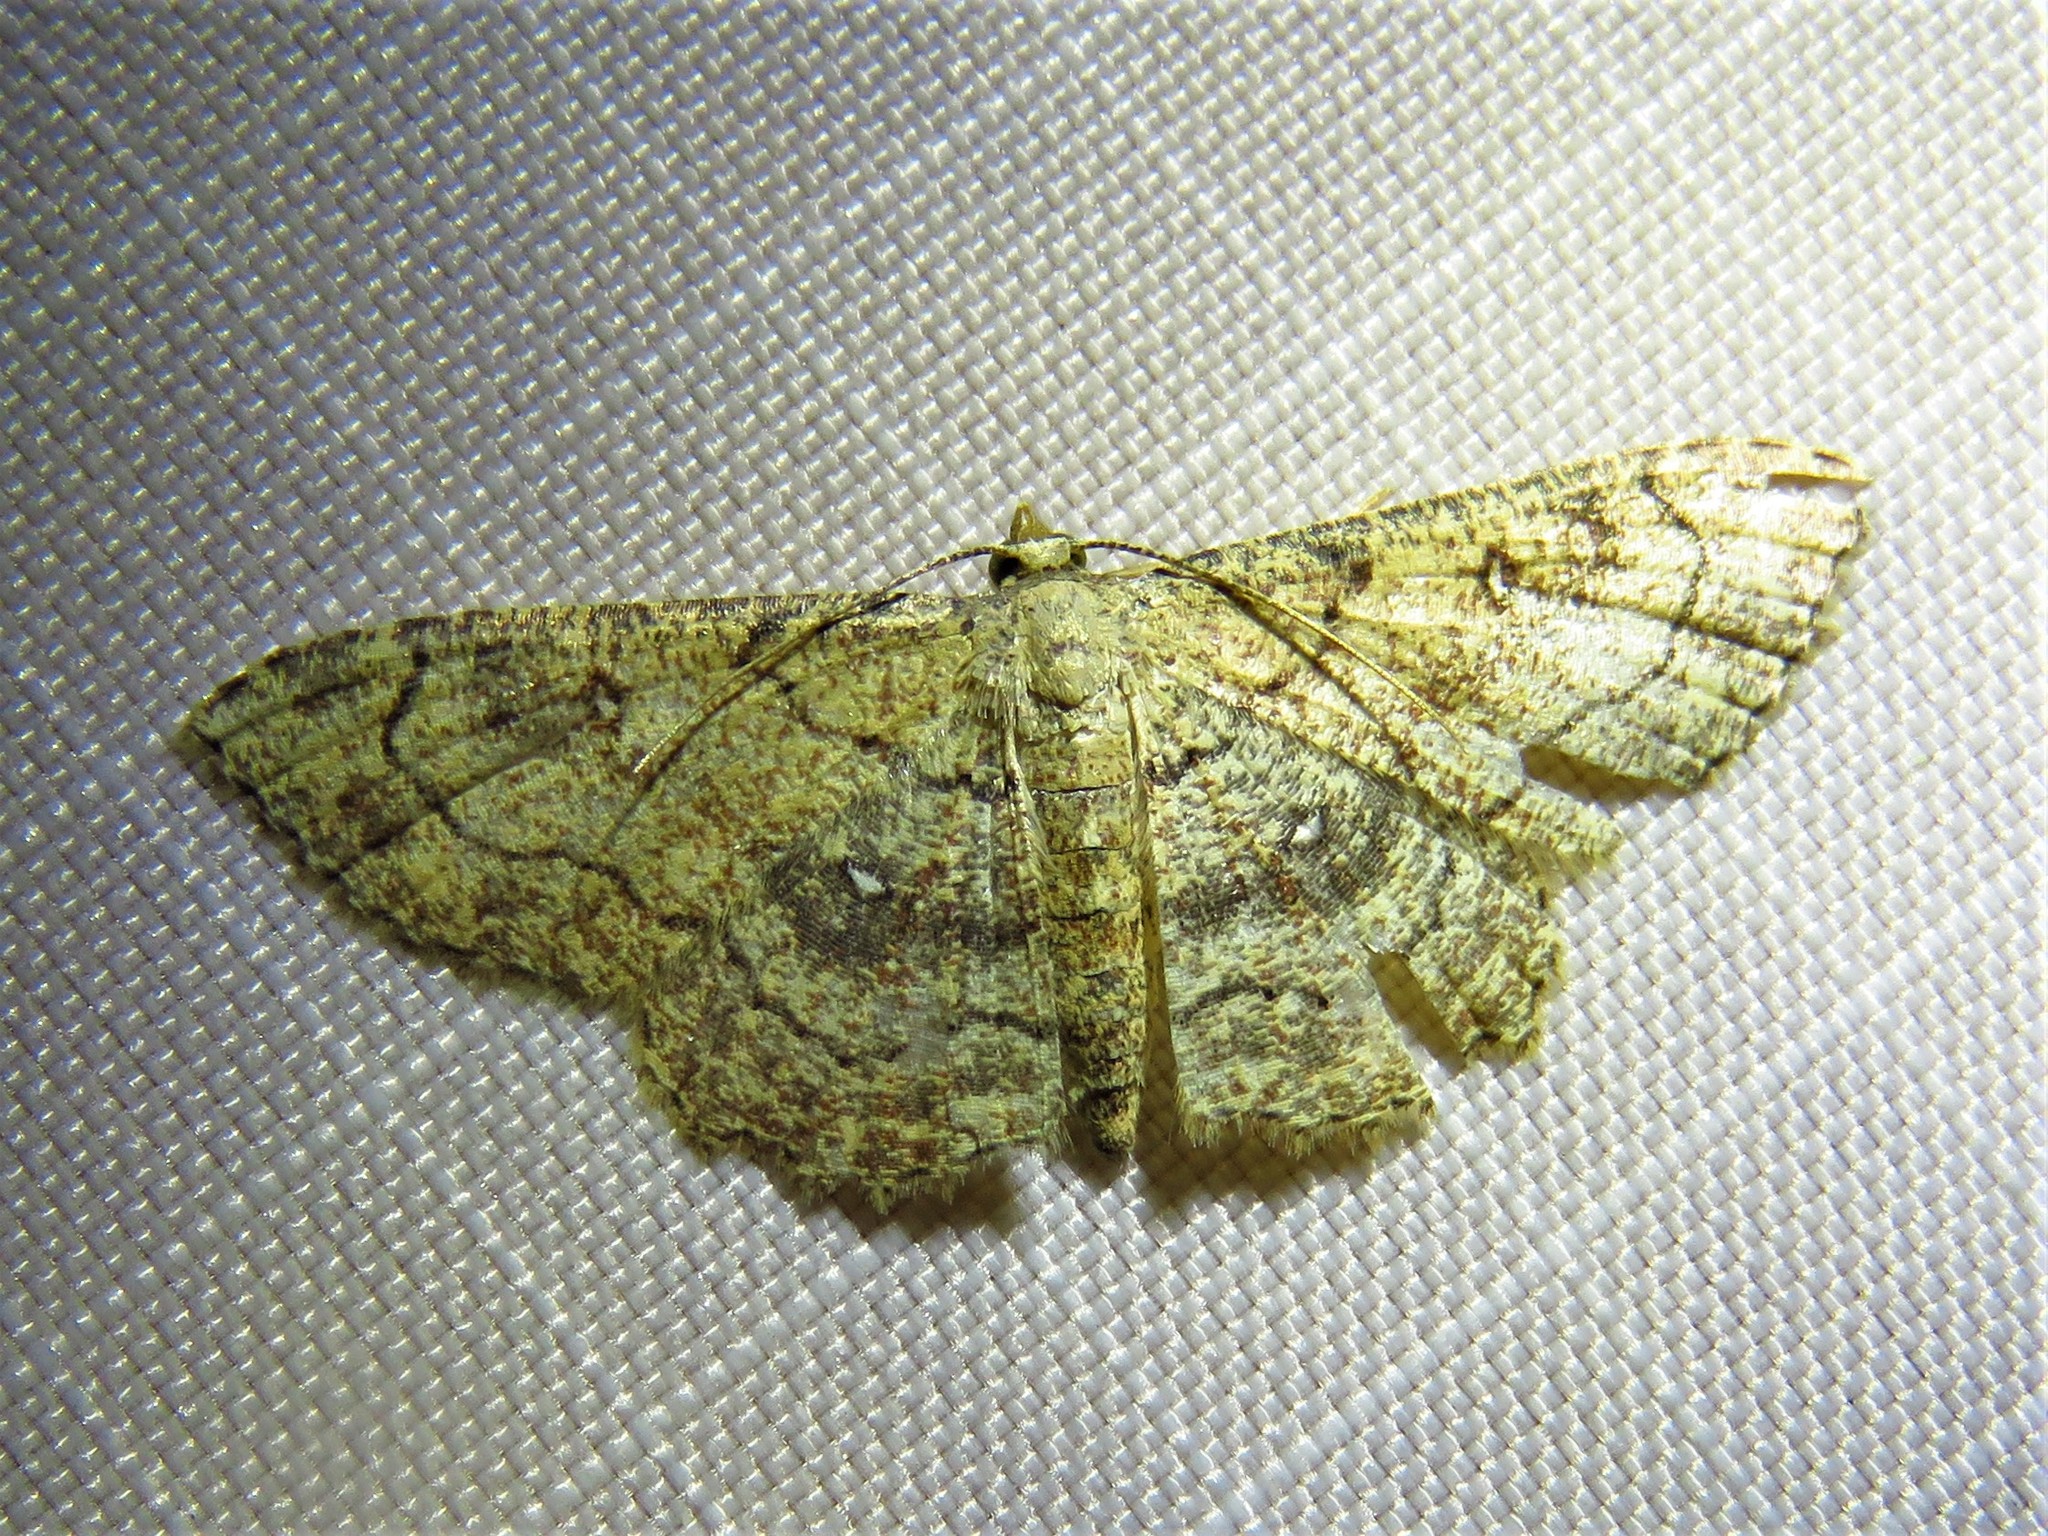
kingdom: Animalia
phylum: Arthropoda
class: Insecta
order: Lepidoptera
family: Geometridae
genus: Cyclophora
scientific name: Cyclophora nanaria
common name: Cankerworm
